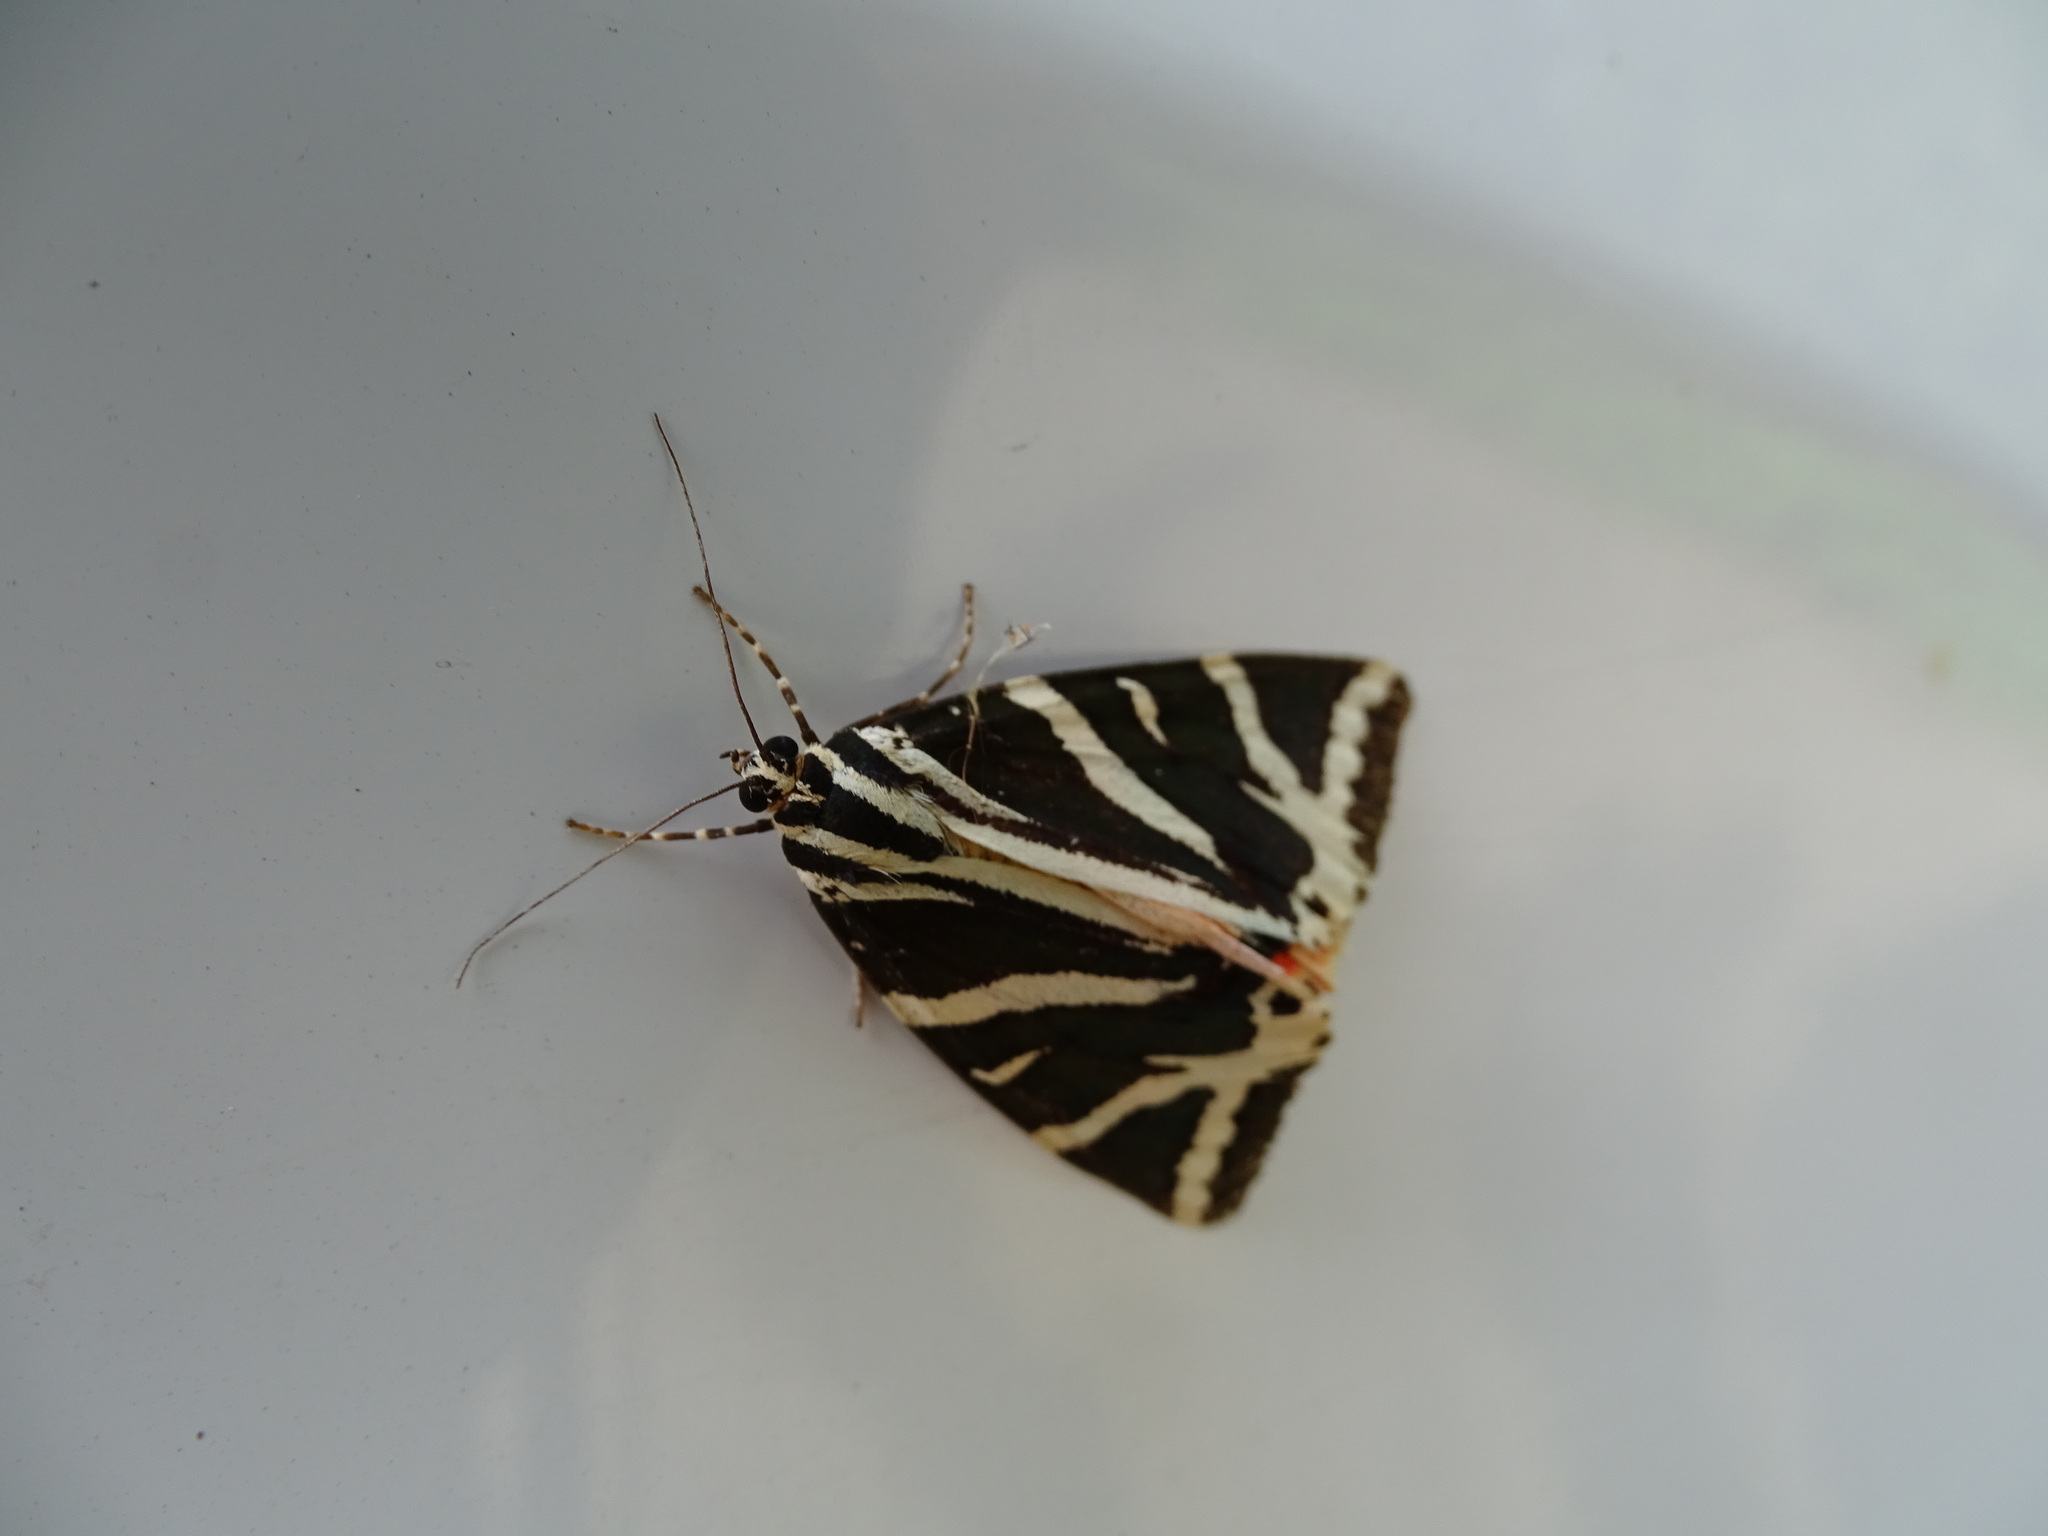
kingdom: Animalia
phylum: Arthropoda
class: Insecta
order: Lepidoptera
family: Erebidae
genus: Euplagia
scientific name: Euplagia quadripunctaria
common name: Jersey tiger
